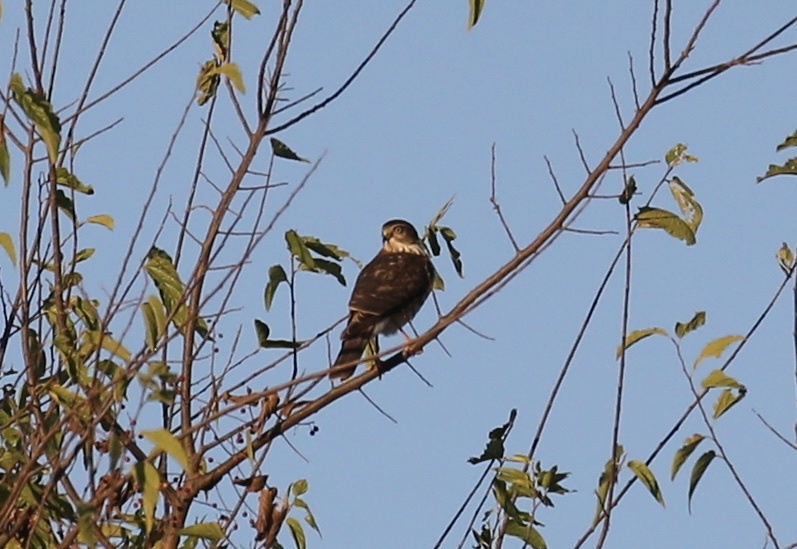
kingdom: Animalia
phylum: Chordata
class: Aves
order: Accipitriformes
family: Accipitridae
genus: Accipiter
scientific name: Accipiter striatus
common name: Sharp-shinned hawk
